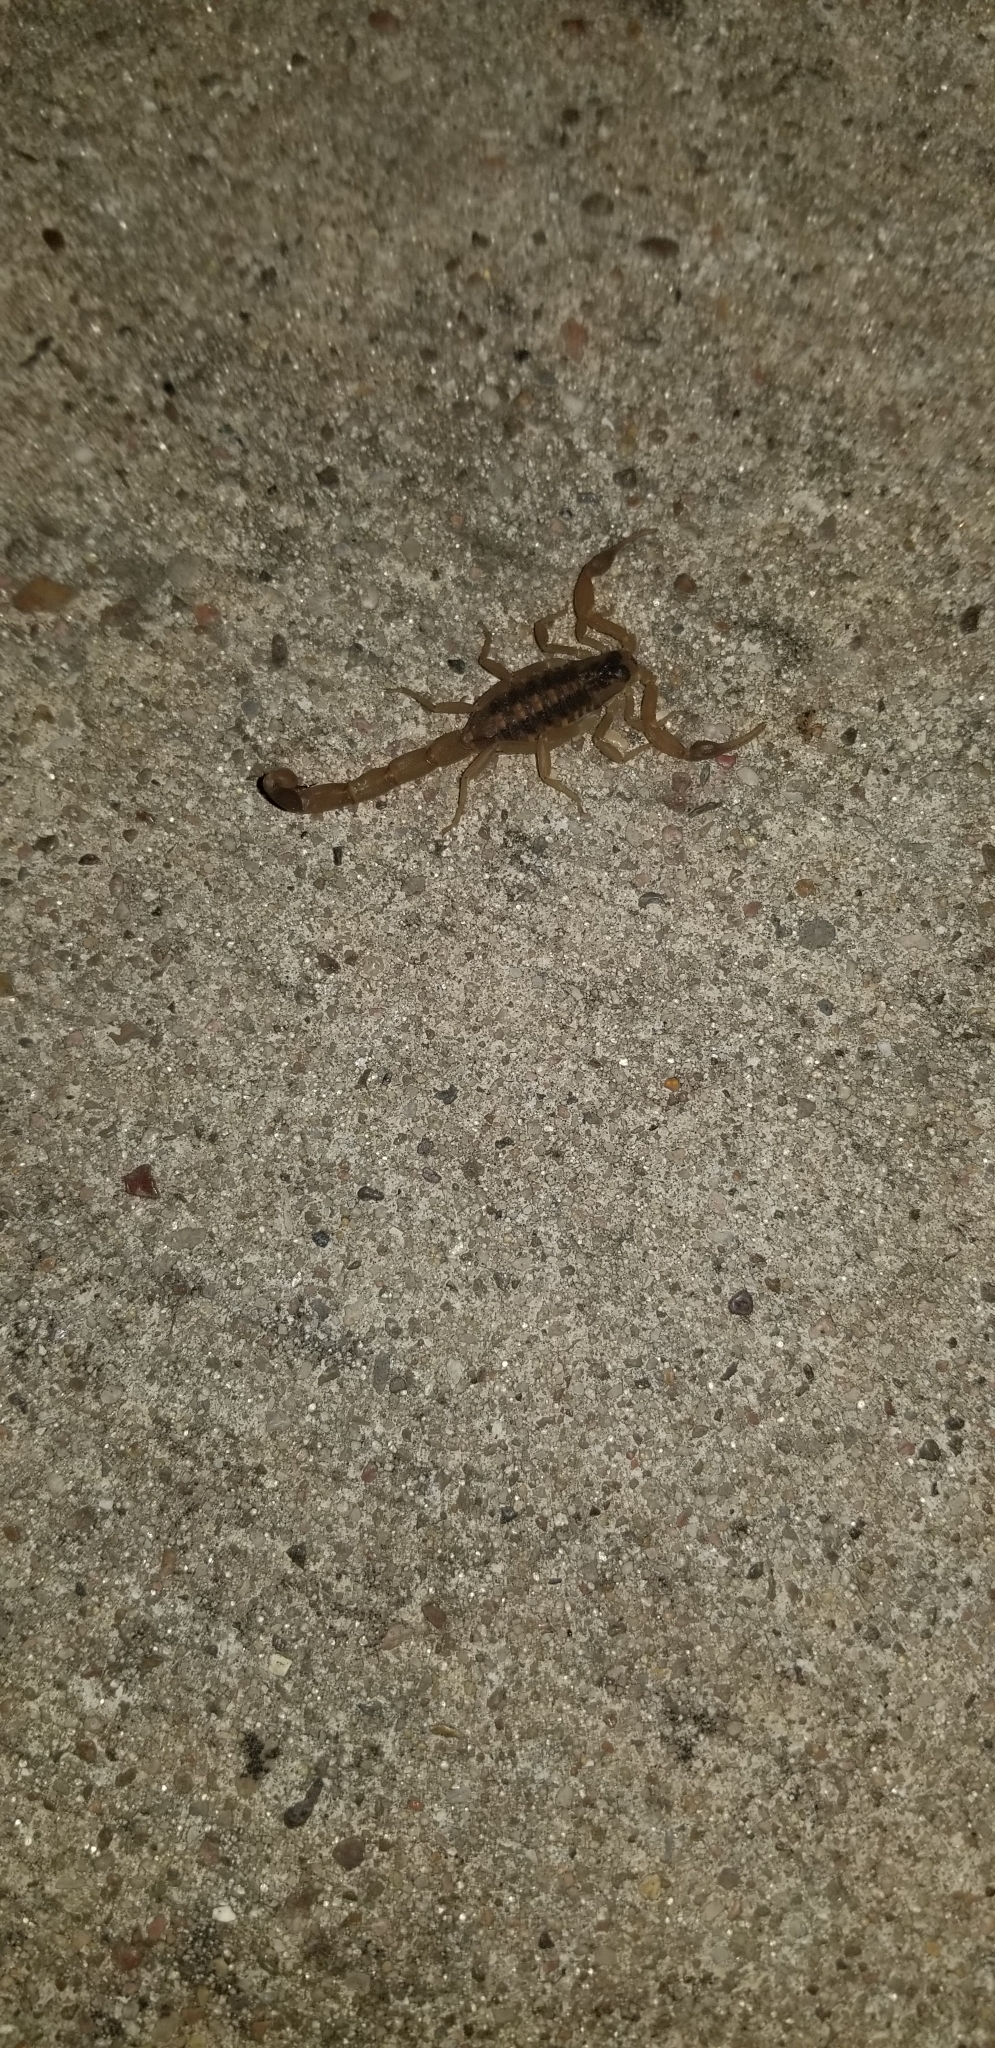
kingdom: Animalia
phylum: Arthropoda
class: Arachnida
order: Scorpiones
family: Buthidae
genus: Centruroides
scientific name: Centruroides vittatus
